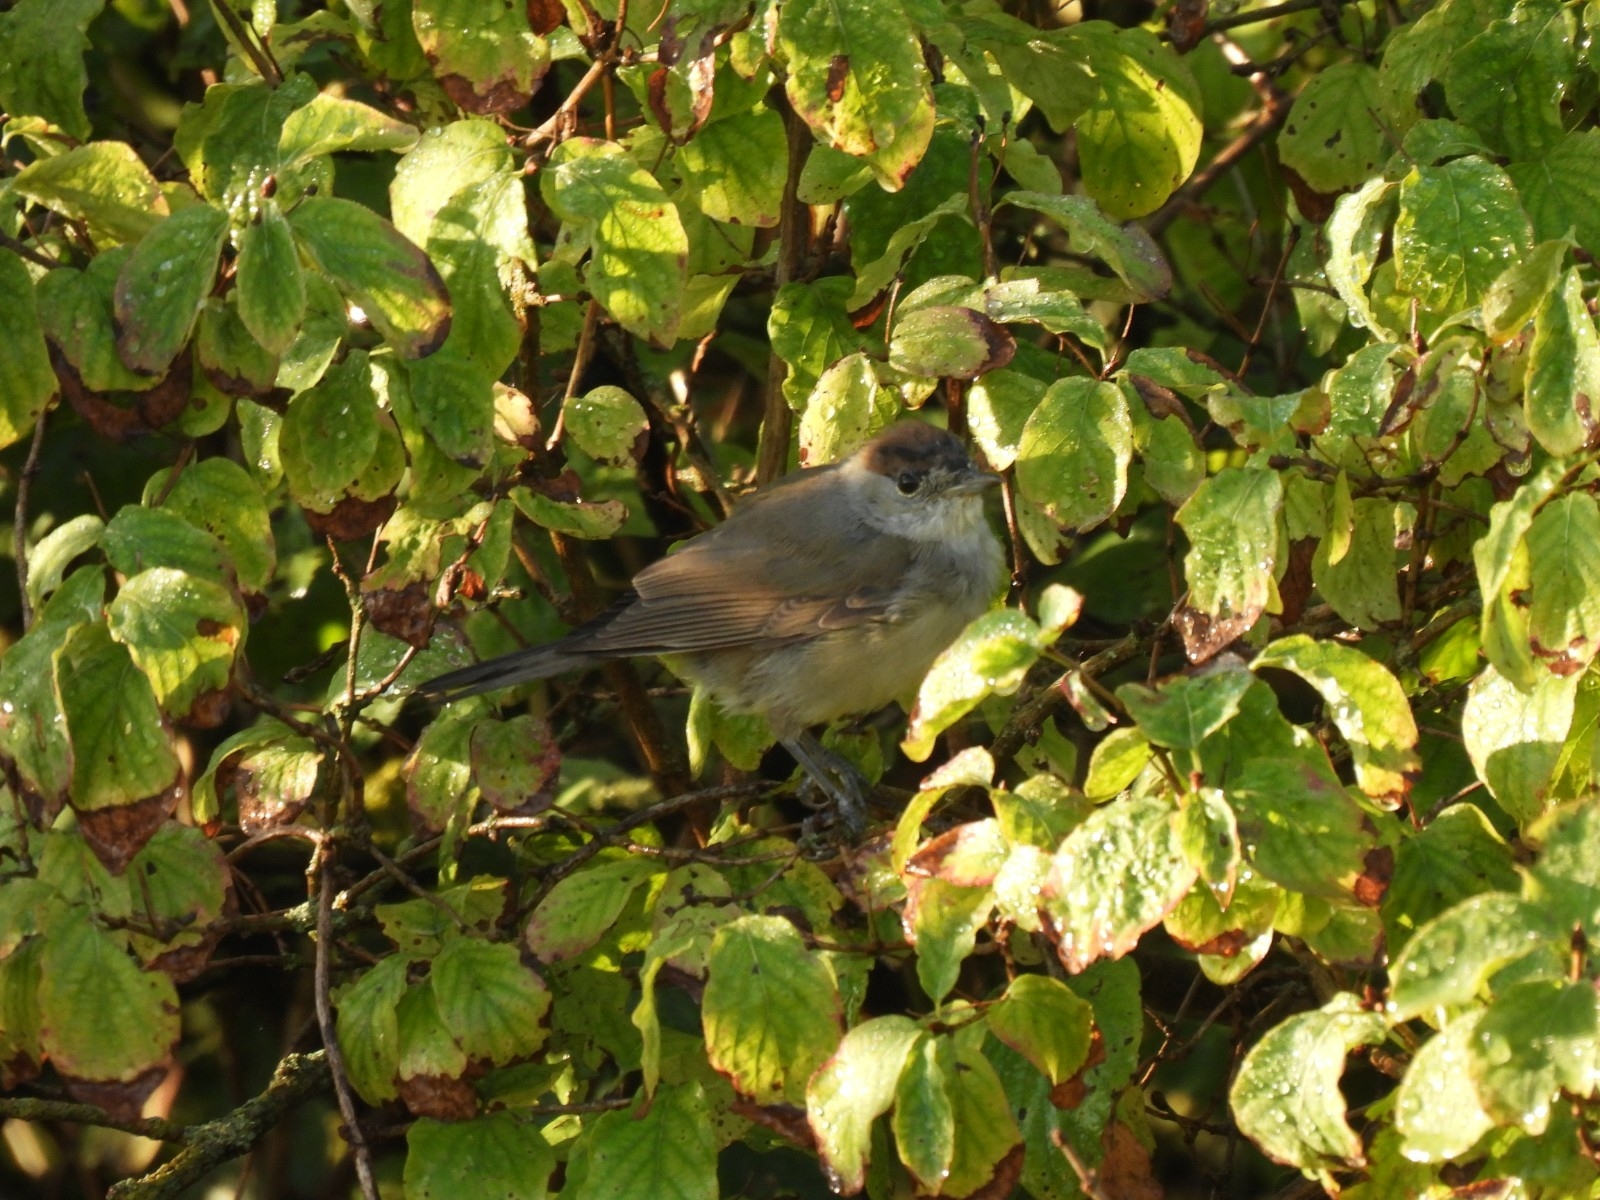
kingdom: Animalia
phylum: Chordata
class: Aves
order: Passeriformes
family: Sylviidae
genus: Sylvia
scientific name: Sylvia atricapilla
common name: Eurasian blackcap
